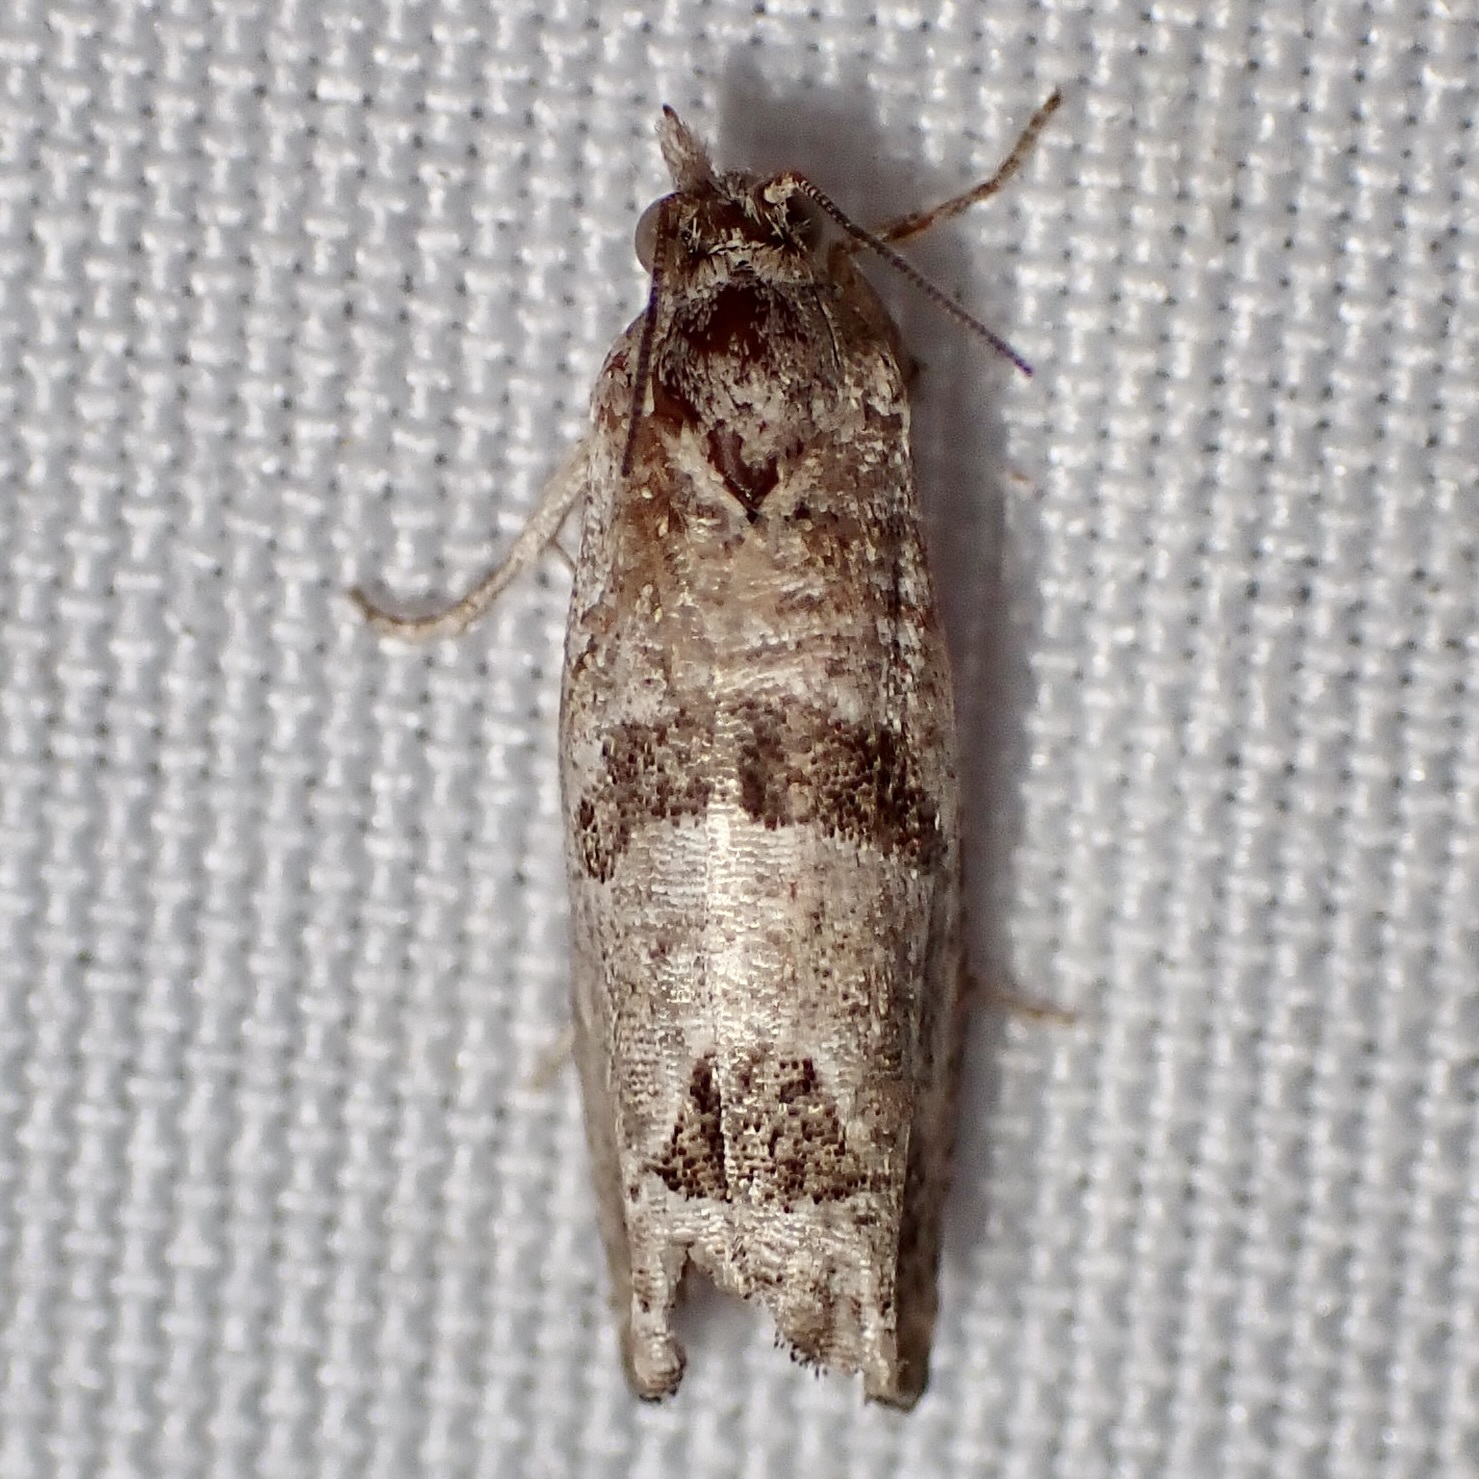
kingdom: Animalia
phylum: Arthropoda
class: Insecta
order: Lepidoptera
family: Tortricidae
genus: Pelochrista
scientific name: Pelochrista mirosignata
